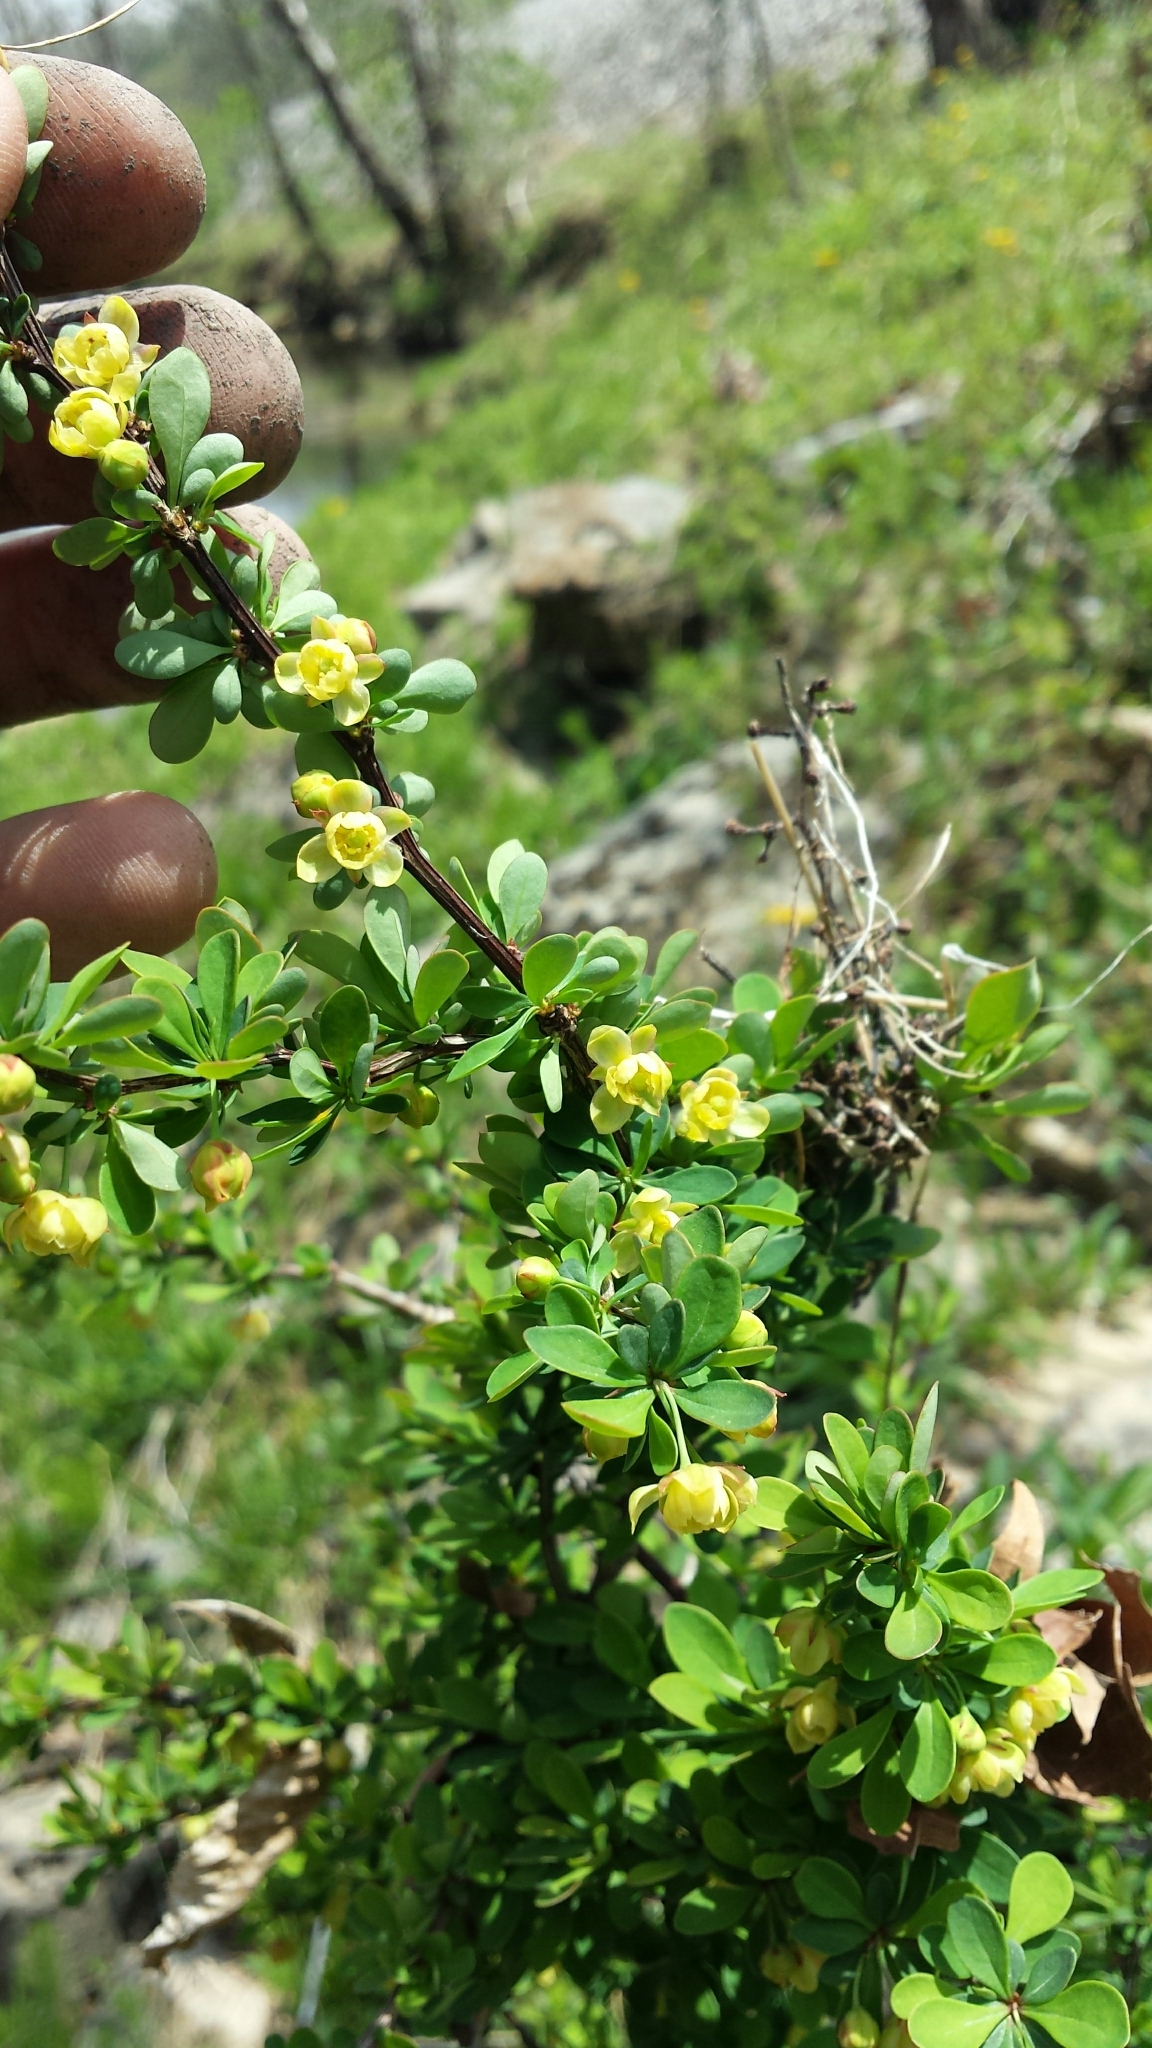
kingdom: Plantae
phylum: Tracheophyta
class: Magnoliopsida
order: Ranunculales
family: Berberidaceae
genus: Berberis
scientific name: Berberis thunbergii
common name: Japanese barberry
